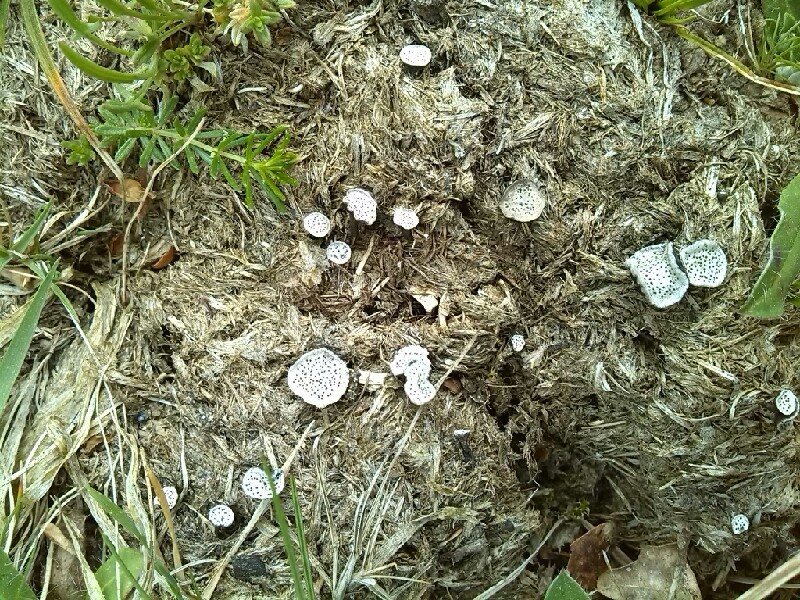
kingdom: Fungi
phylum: Ascomycota
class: Sordariomycetes
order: Xylariales
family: Xylariaceae
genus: Poronia
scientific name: Poronia punctata
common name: Nail fungus
